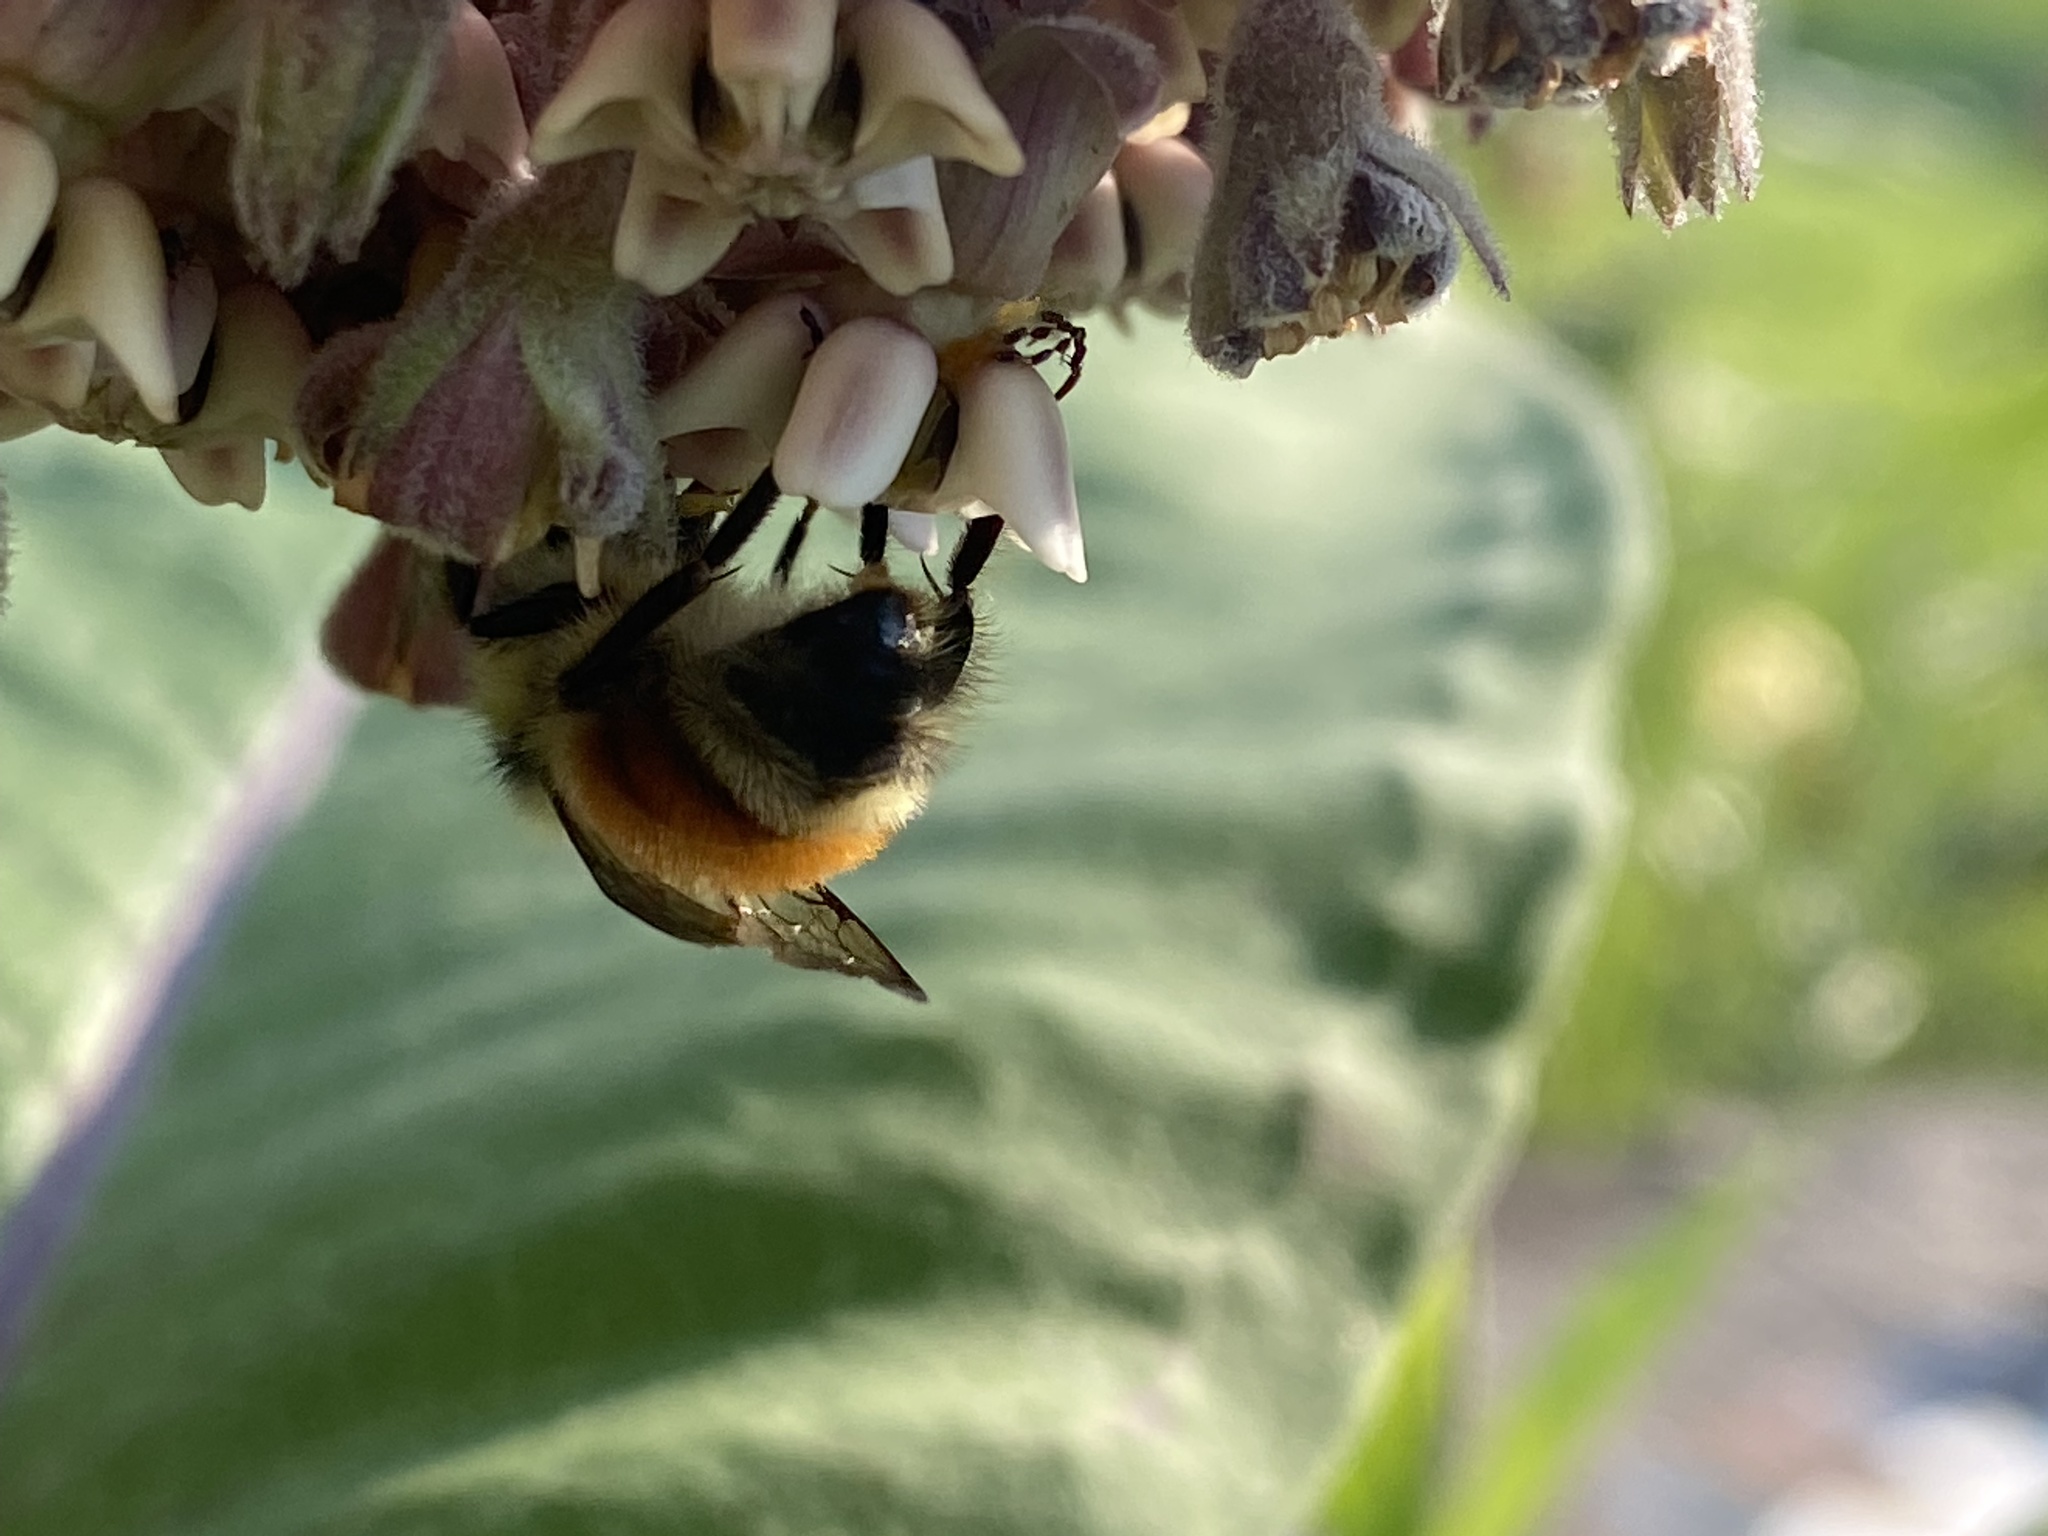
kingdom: Animalia
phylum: Arthropoda
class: Insecta
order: Hymenoptera
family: Apidae
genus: Bombus
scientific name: Bombus ternarius
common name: Tri-colored bumble bee
